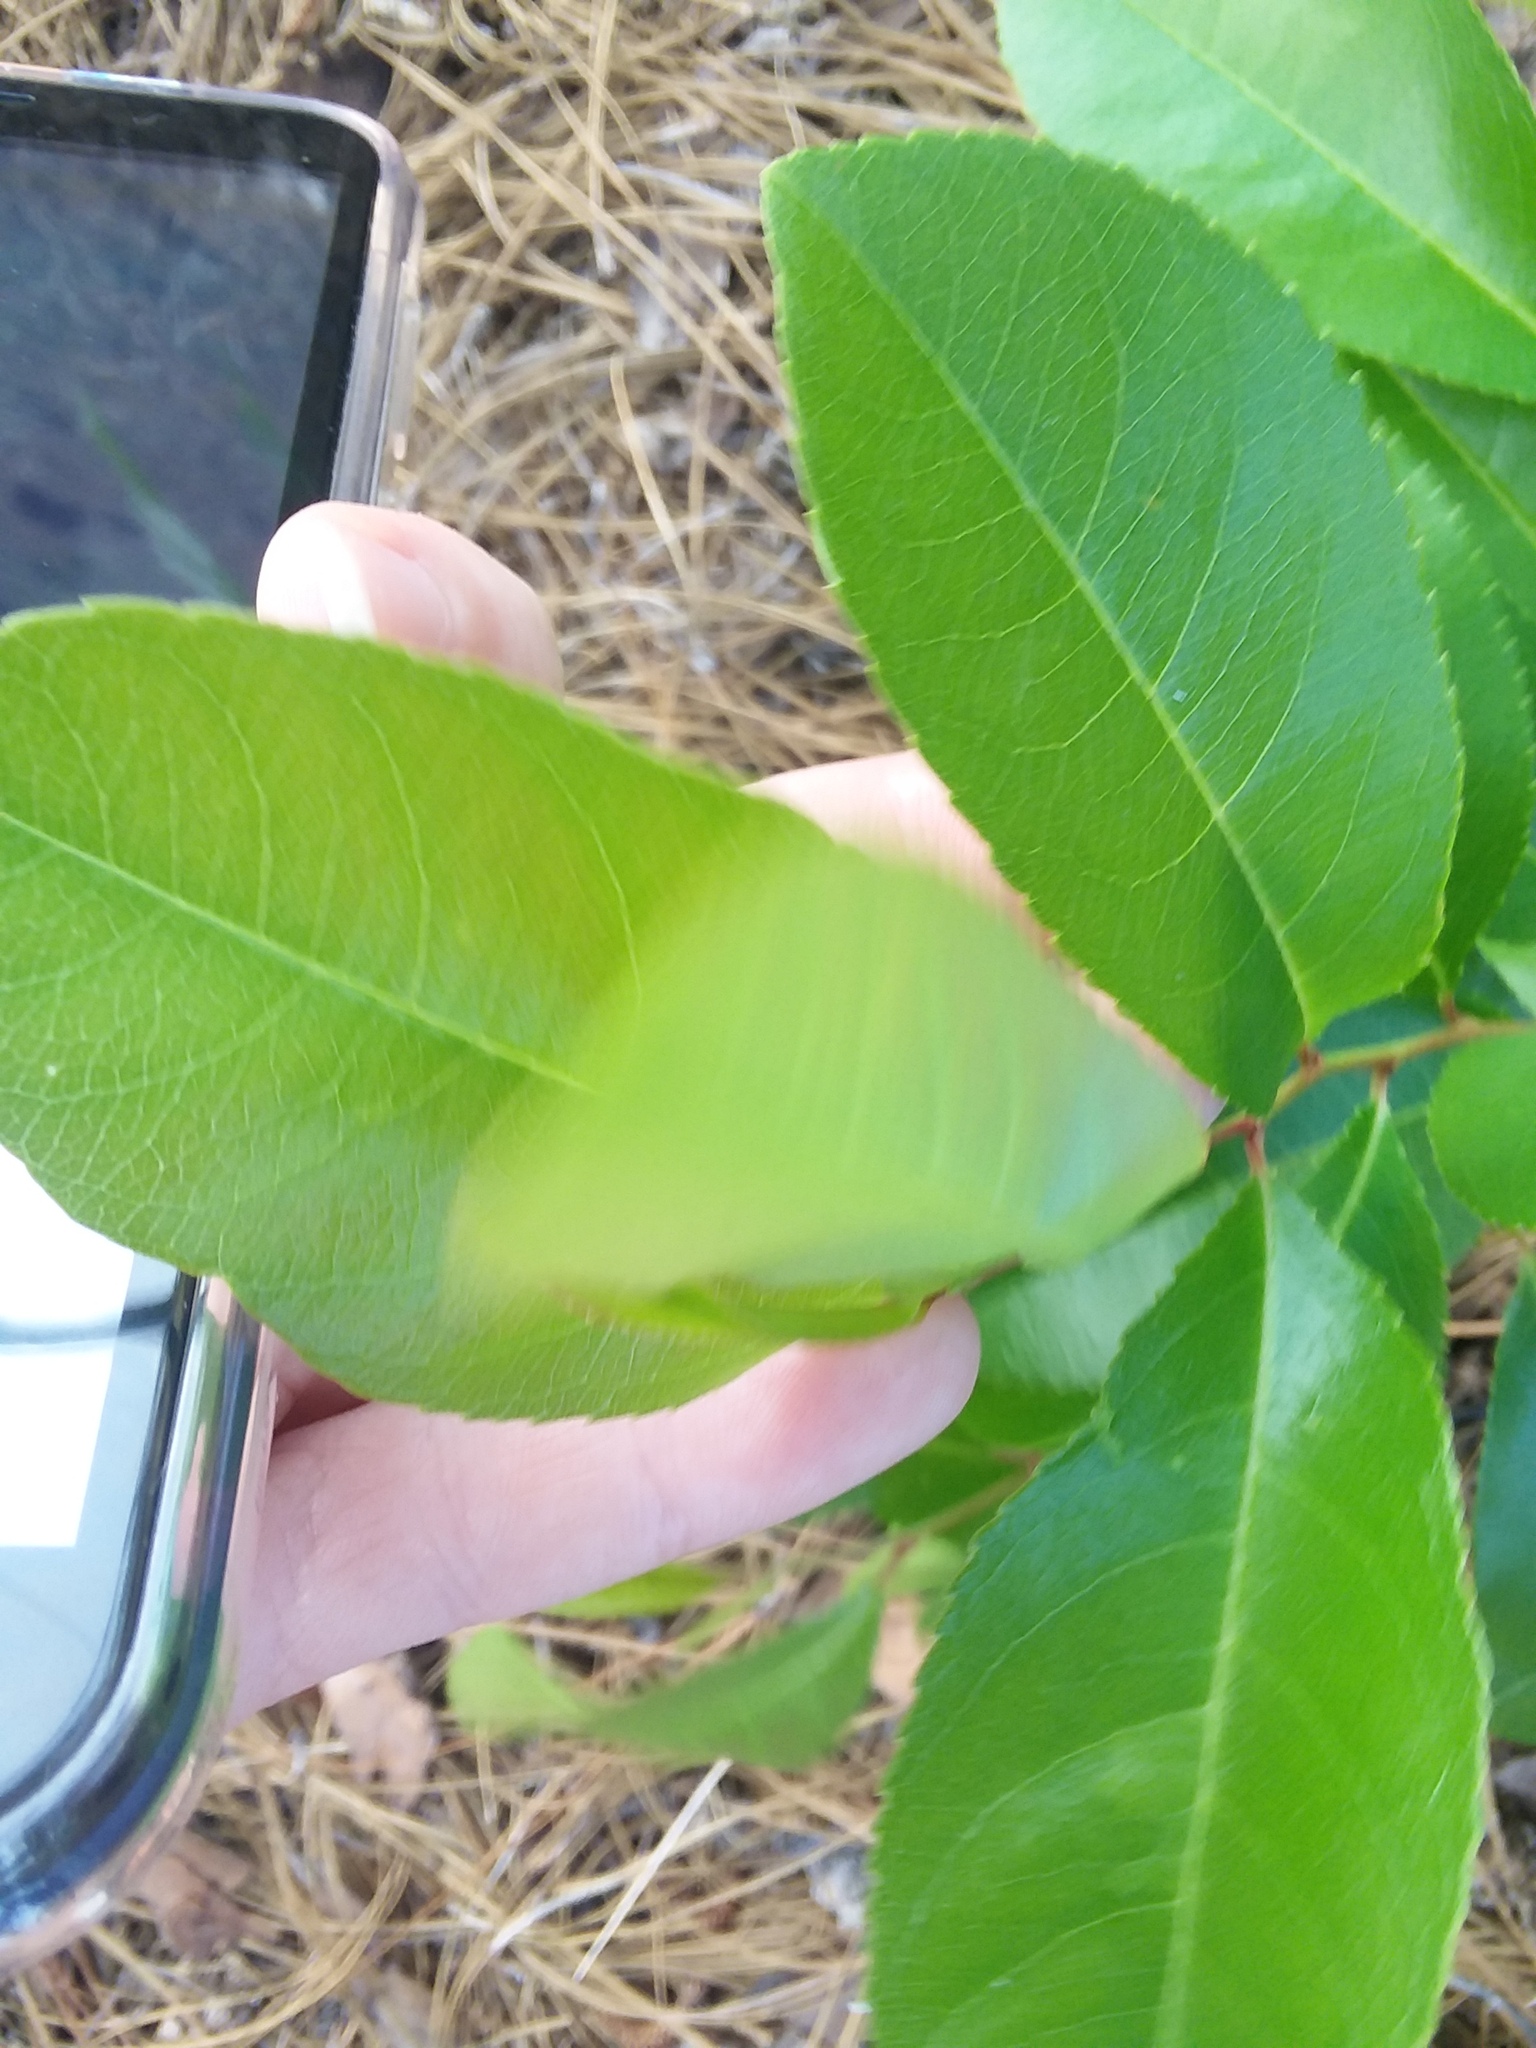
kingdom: Plantae
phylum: Tracheophyta
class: Magnoliopsida
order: Rosales
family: Rosaceae
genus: Prunus
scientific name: Prunus serotina
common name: Black cherry
